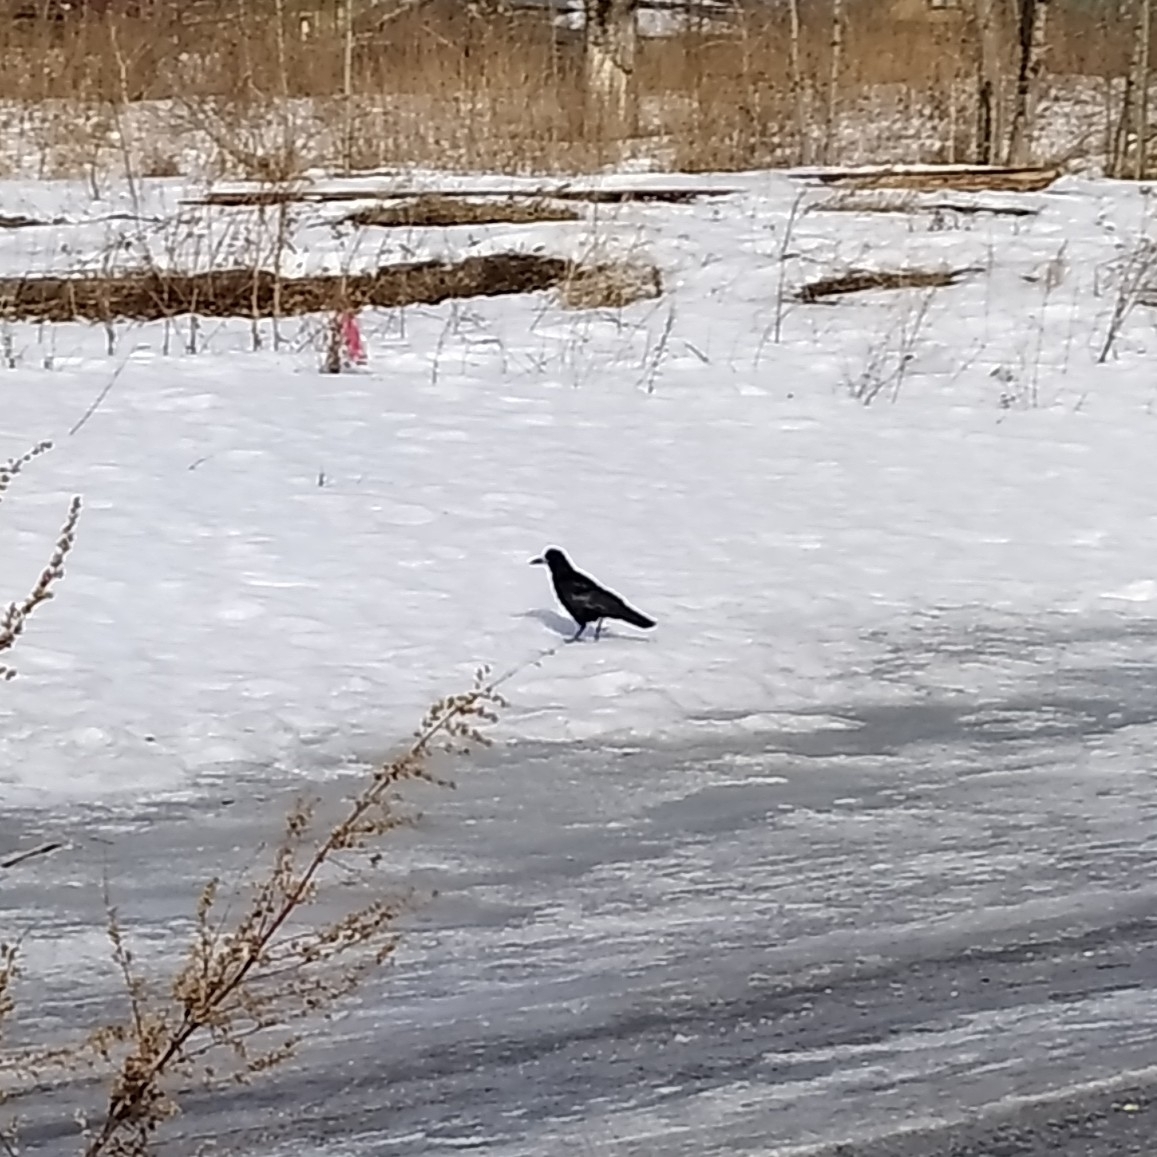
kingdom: Animalia
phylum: Chordata
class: Aves
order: Passeriformes
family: Corvidae
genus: Corvus
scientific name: Corvus frugilegus
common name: Rook
